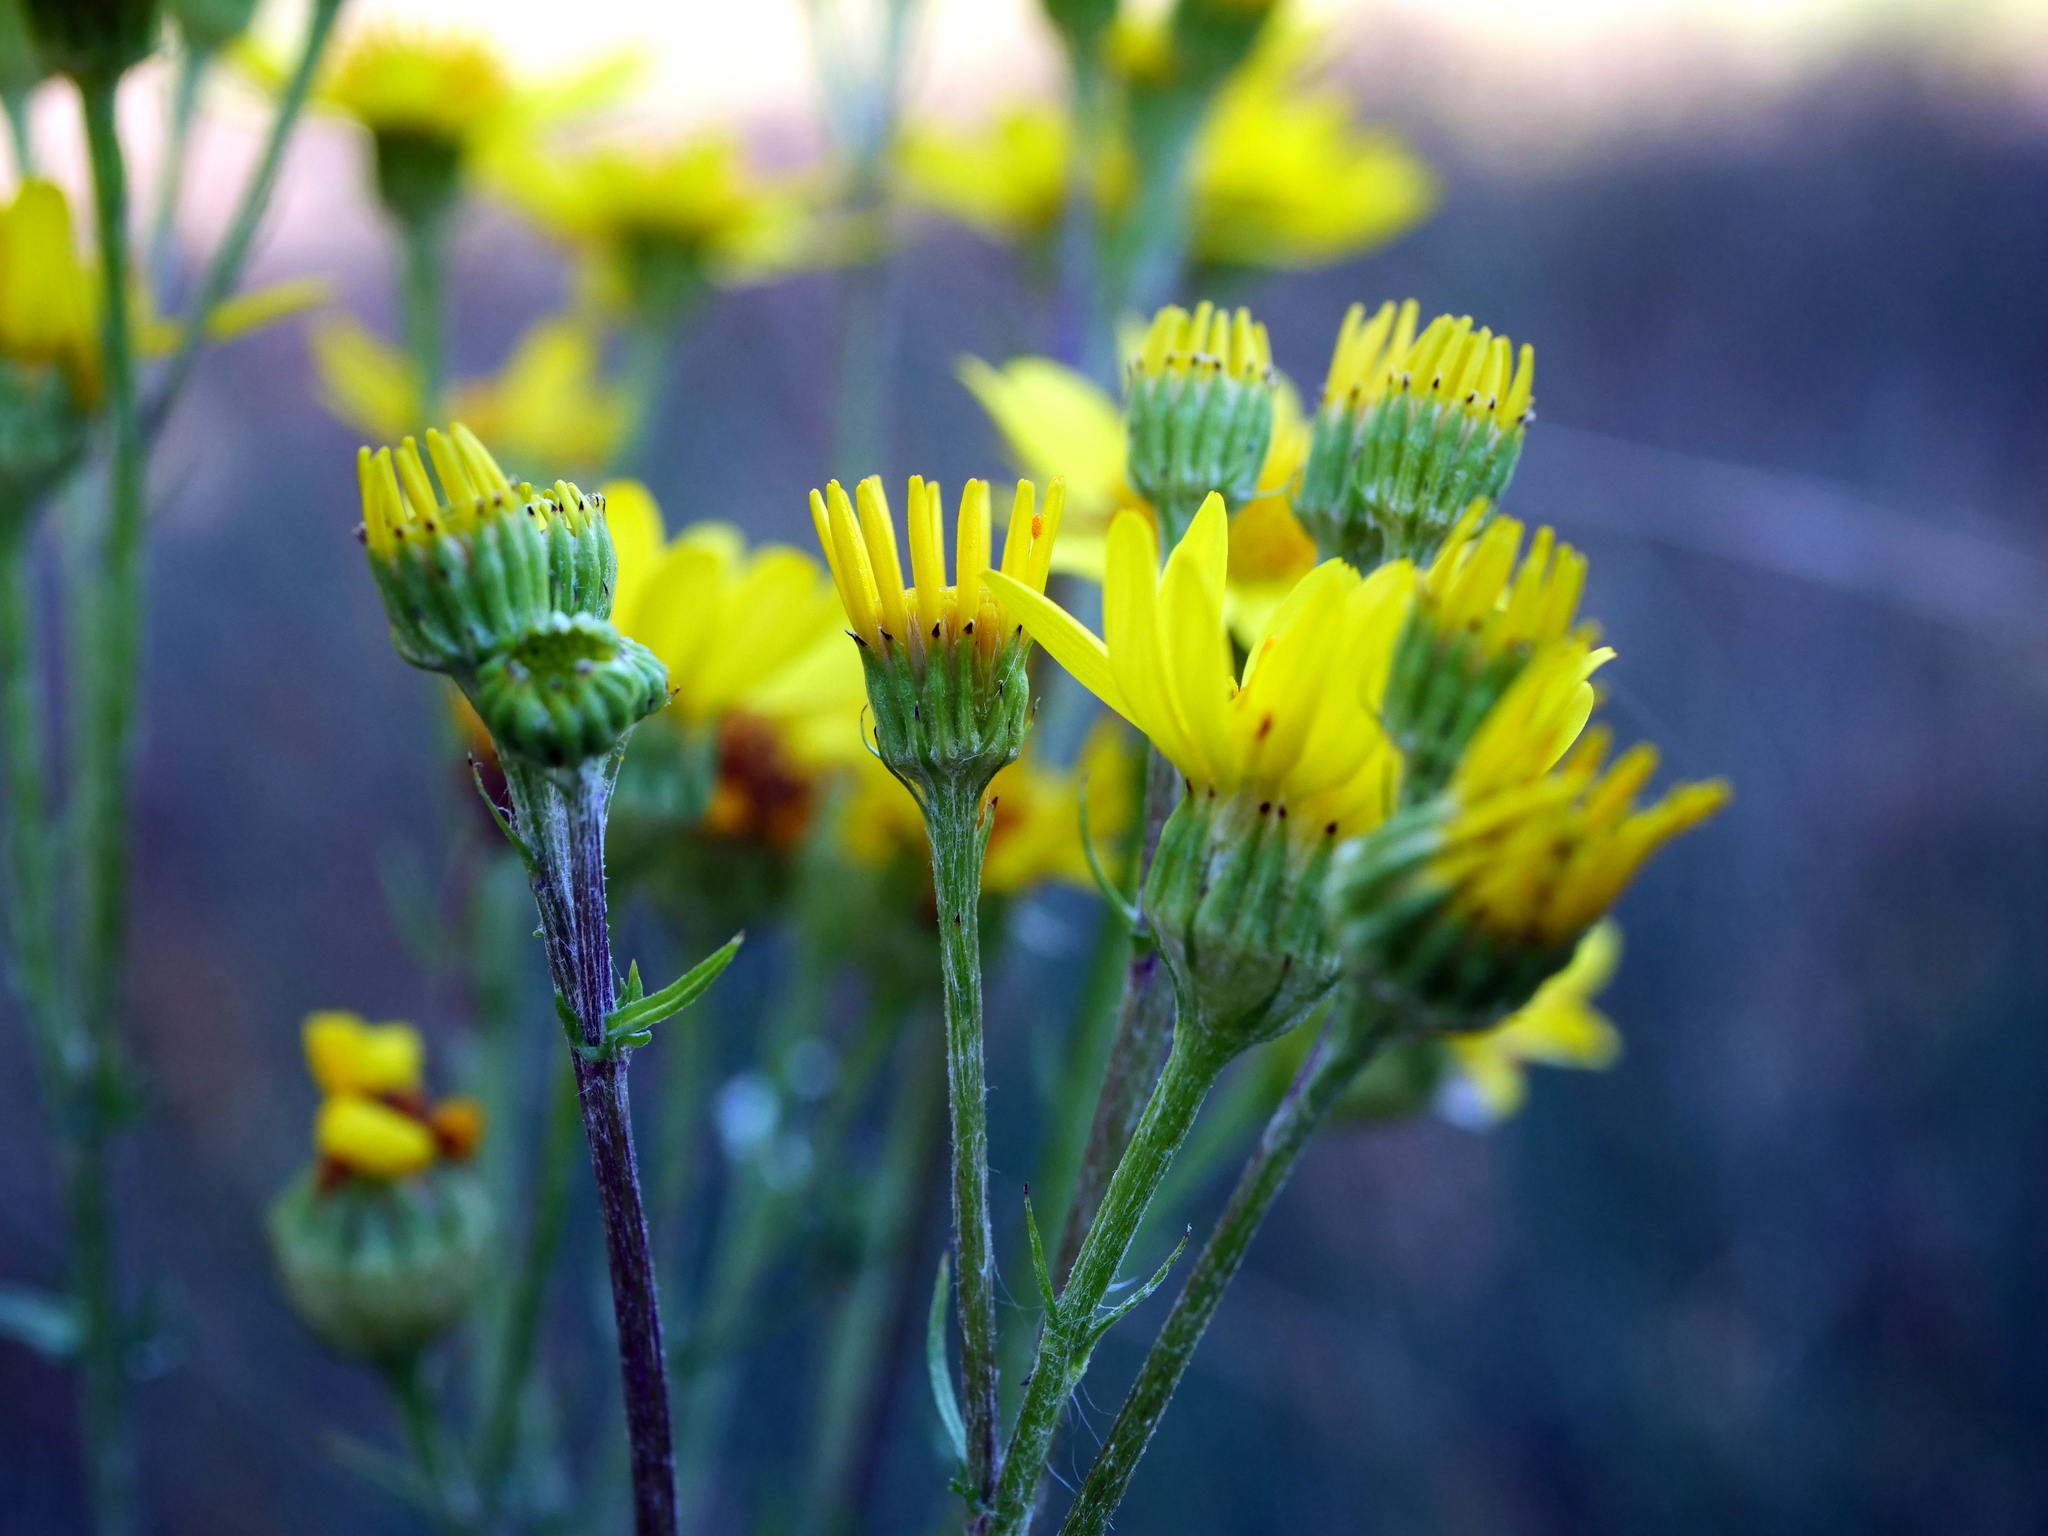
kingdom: Plantae
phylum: Tracheophyta
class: Magnoliopsida
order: Asterales
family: Asteraceae
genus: Jacobaea
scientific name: Jacobaea vulgaris
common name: Stinking willie
